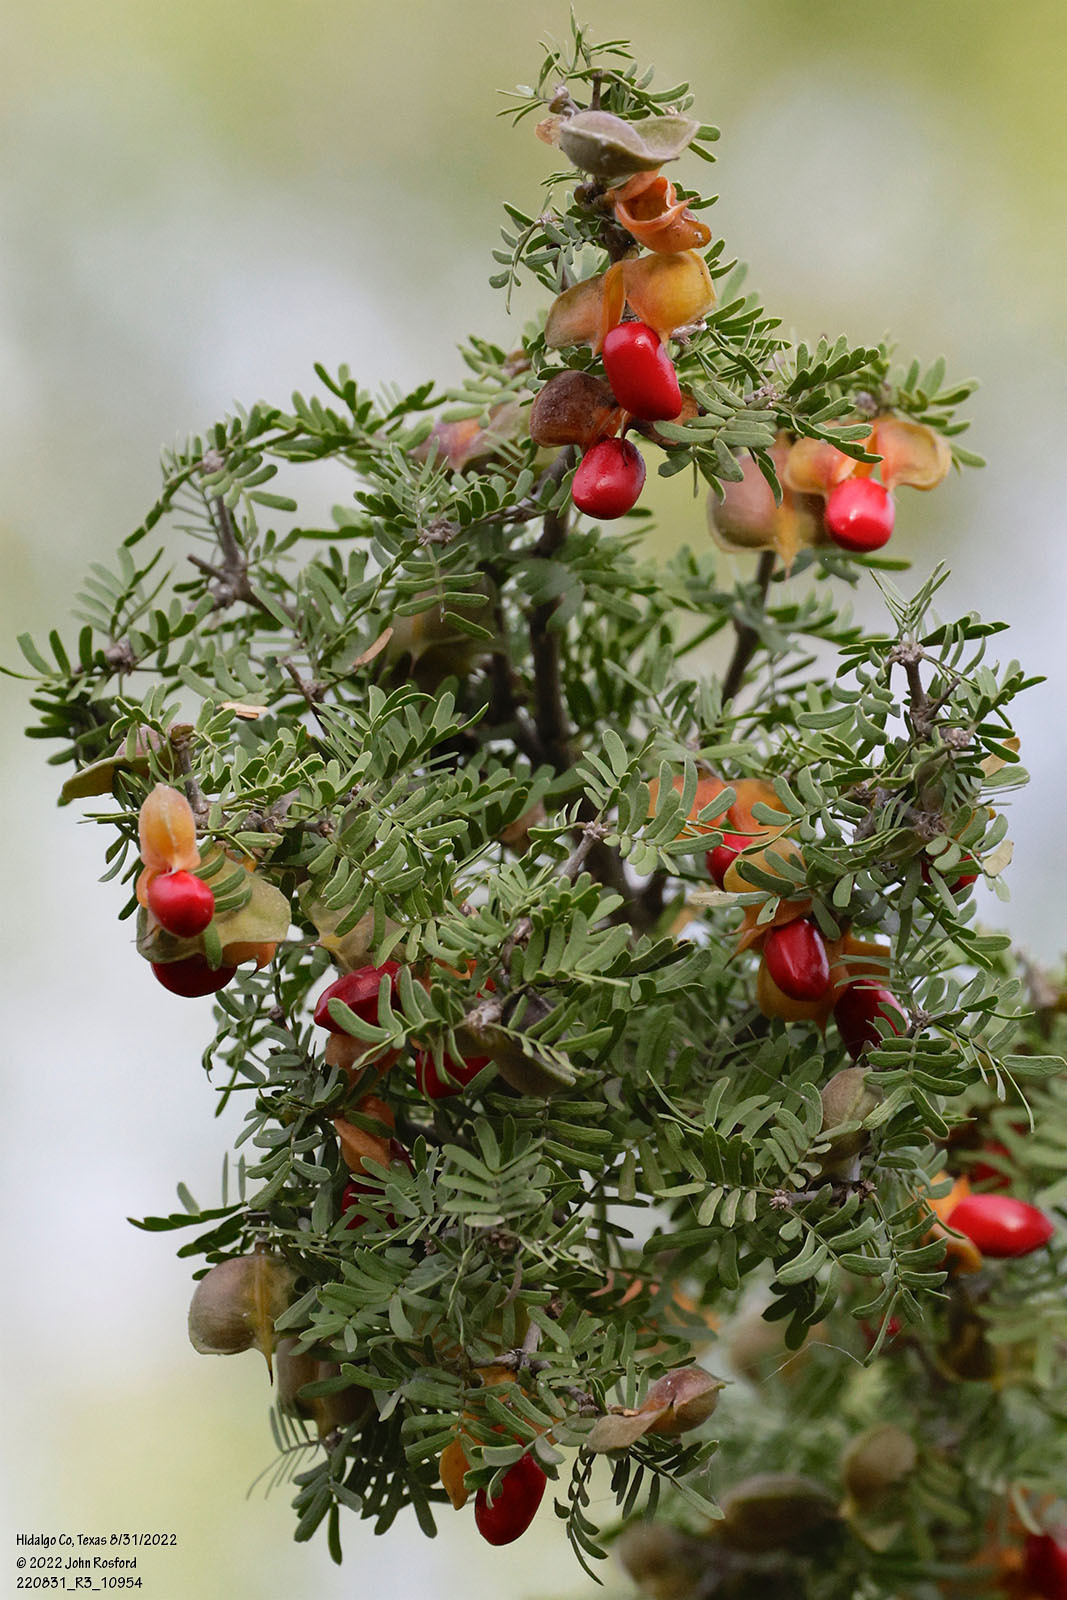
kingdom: Plantae
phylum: Tracheophyta
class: Magnoliopsida
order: Zygophyllales
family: Zygophyllaceae
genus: Porlieria
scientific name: Porlieria angustifolia
